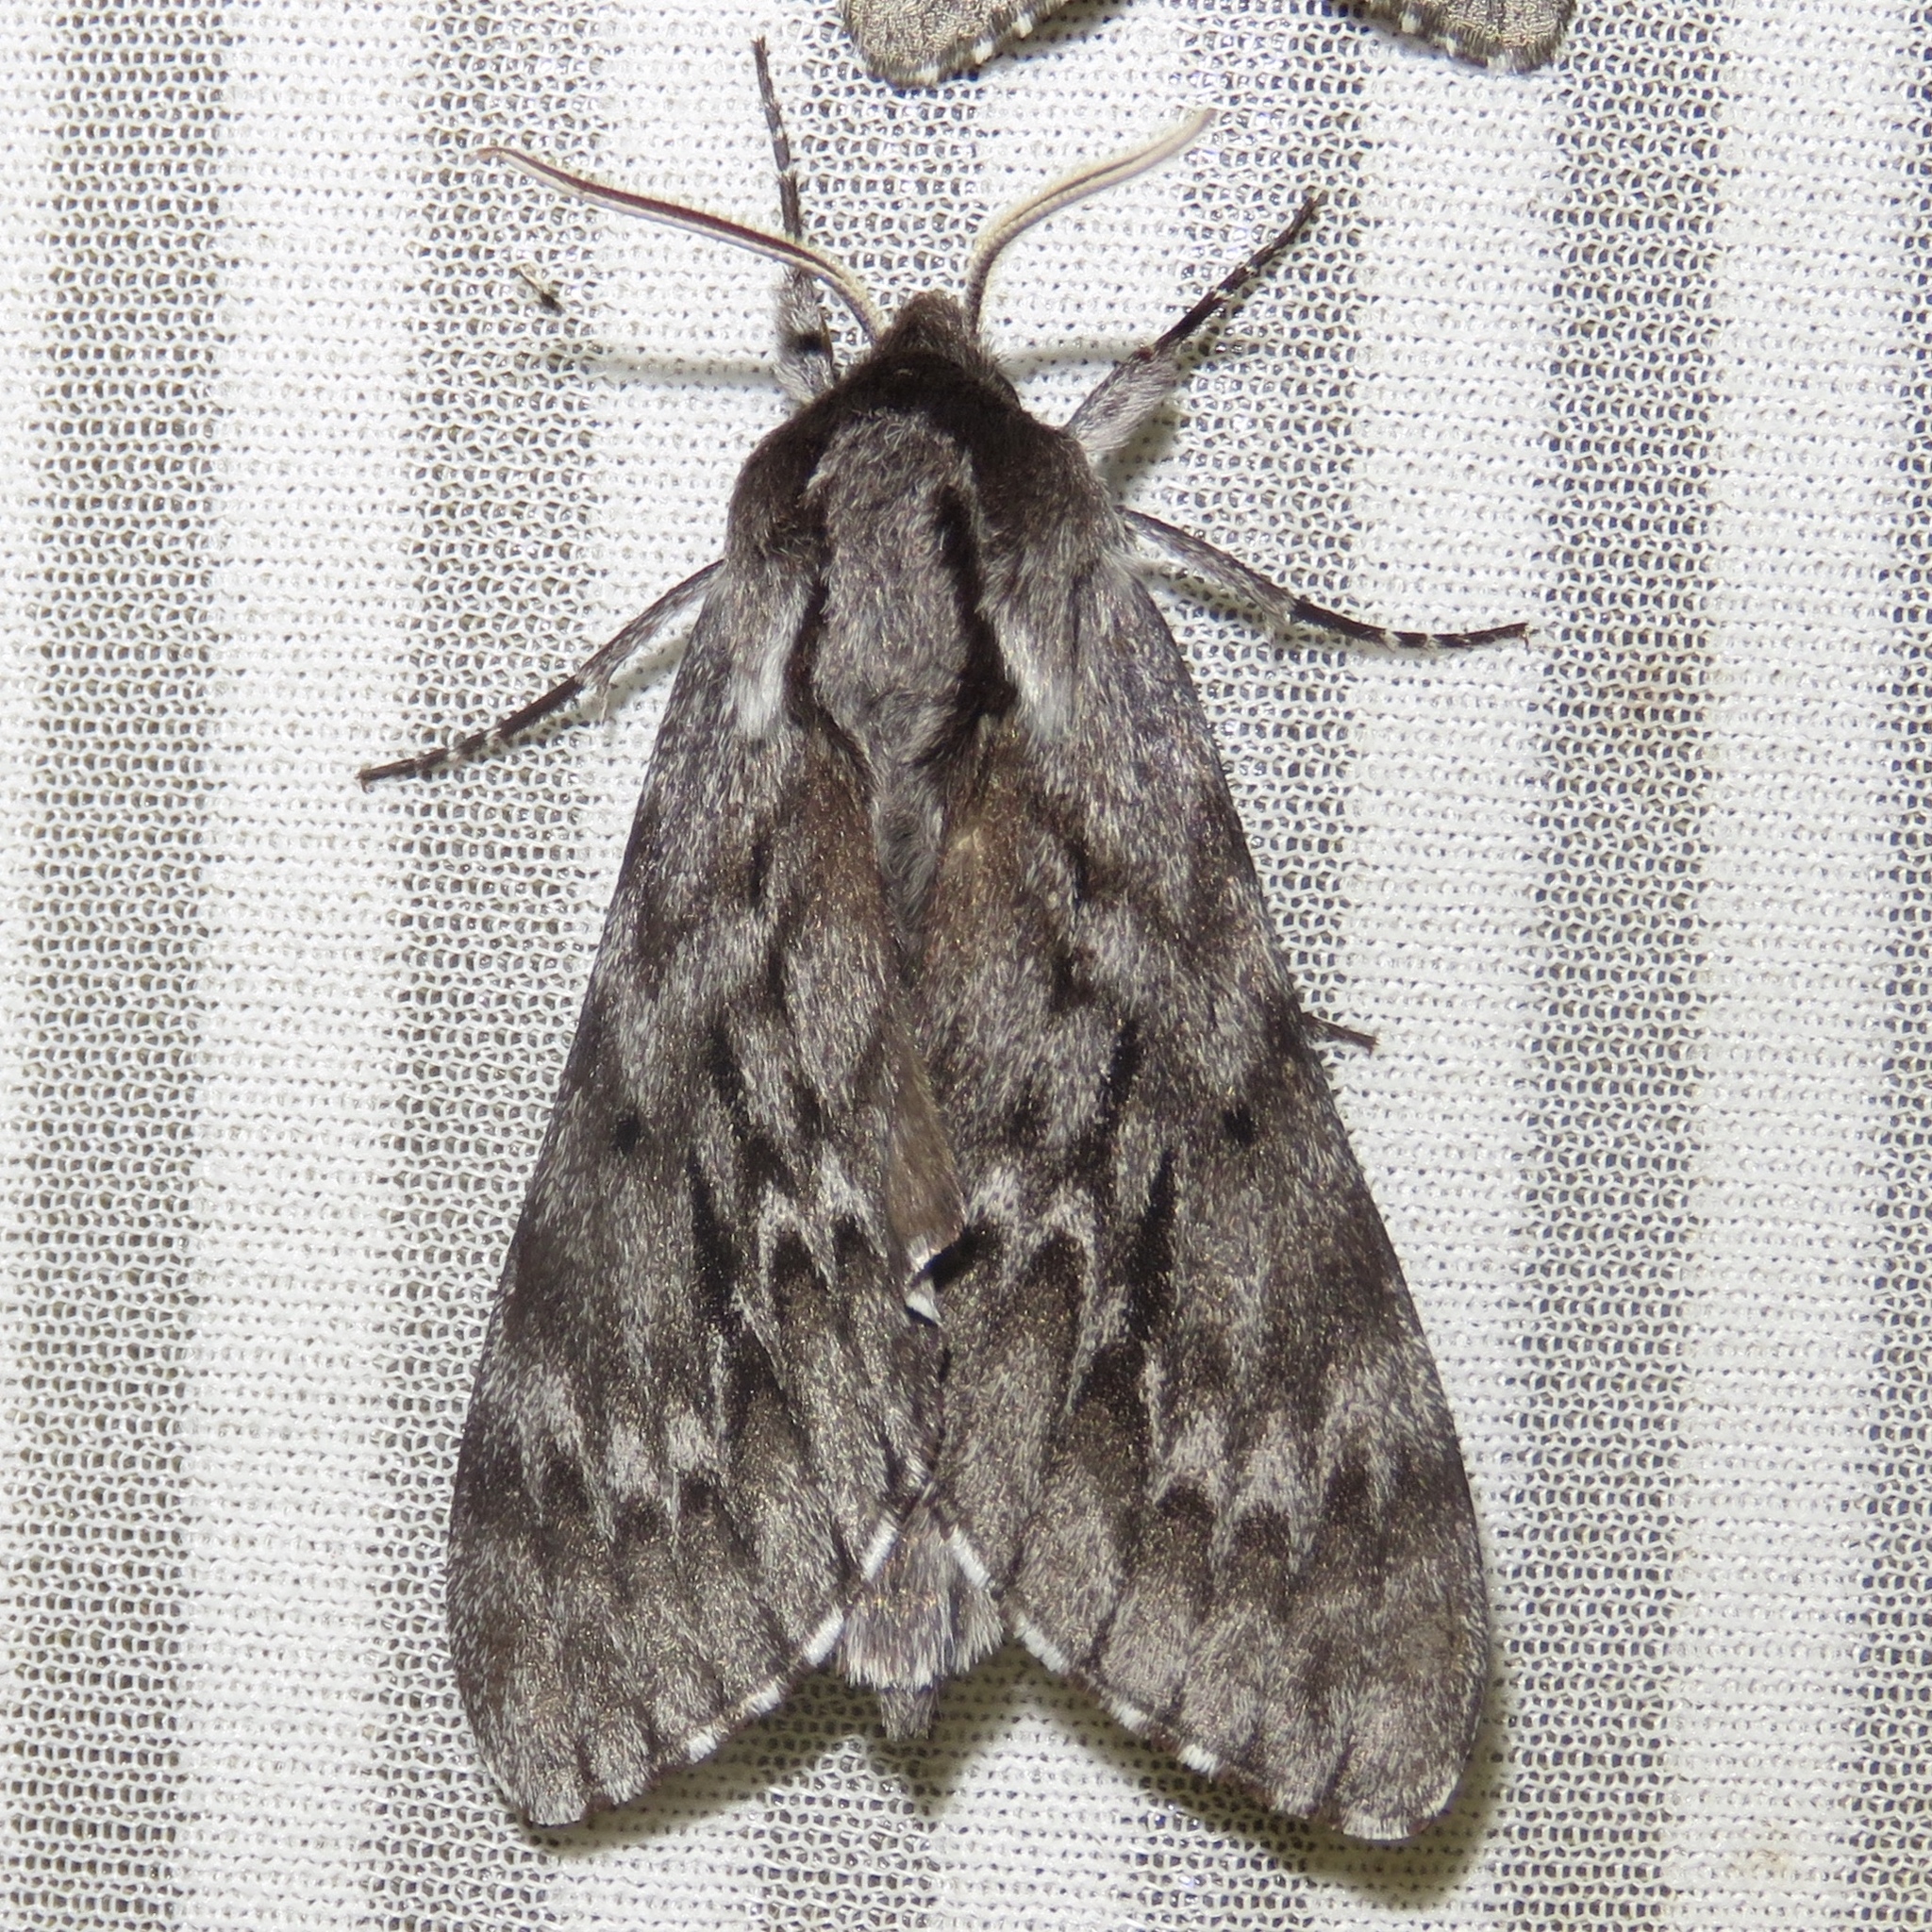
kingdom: Animalia
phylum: Arthropoda
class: Insecta
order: Lepidoptera
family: Sphingidae
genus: Lapara
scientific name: Lapara bombycoides
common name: Northern pine sphinx
